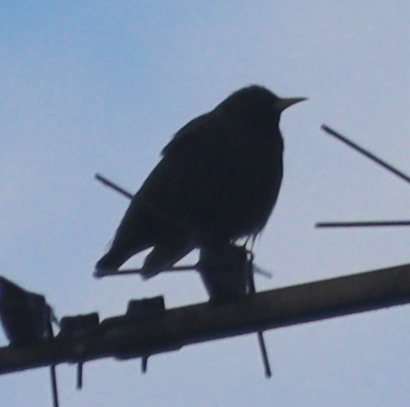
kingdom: Animalia
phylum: Chordata
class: Aves
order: Passeriformes
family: Sturnidae
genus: Sturnus
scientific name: Sturnus vulgaris
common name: Common starling
